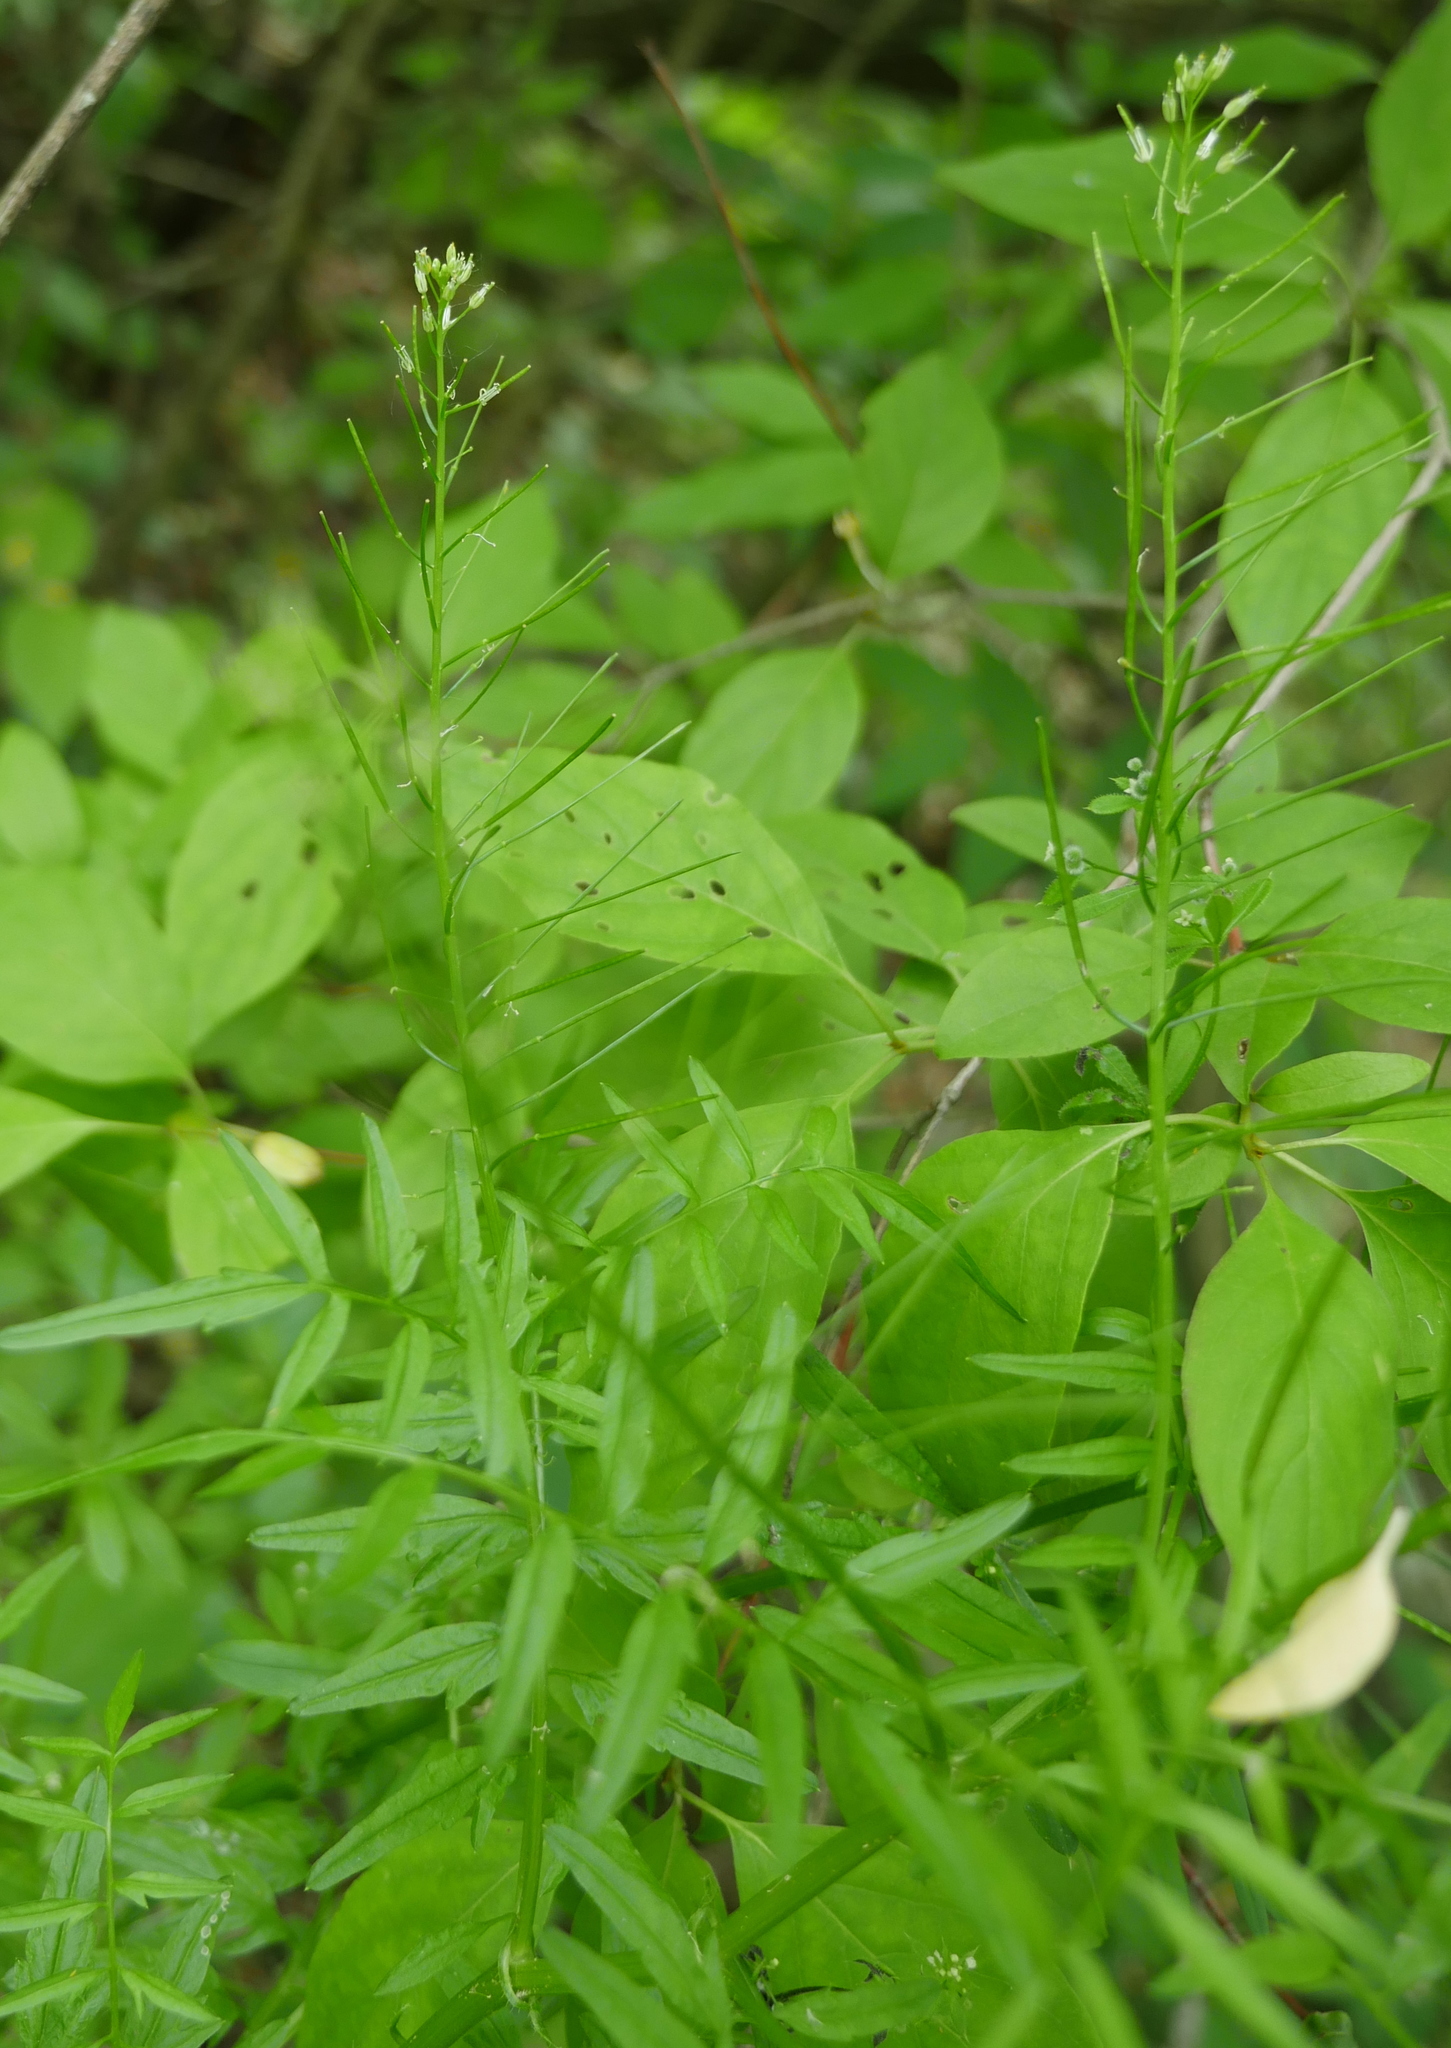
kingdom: Plantae
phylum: Tracheophyta
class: Magnoliopsida
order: Brassicales
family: Brassicaceae
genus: Cardamine
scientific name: Cardamine impatiens
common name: Narrow-leaved bitter-cress
